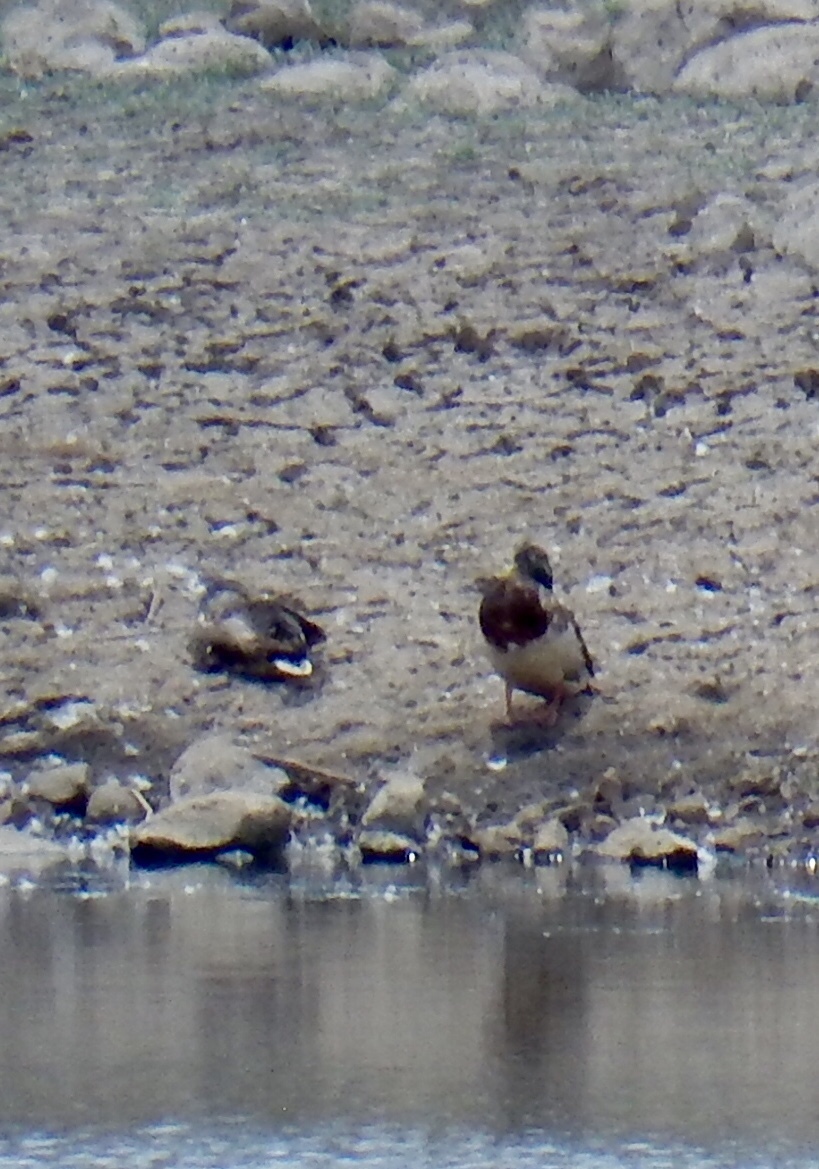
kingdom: Animalia
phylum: Chordata
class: Aves
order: Anseriformes
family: Anatidae
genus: Anas
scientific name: Anas platyrhynchos
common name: Mallard
